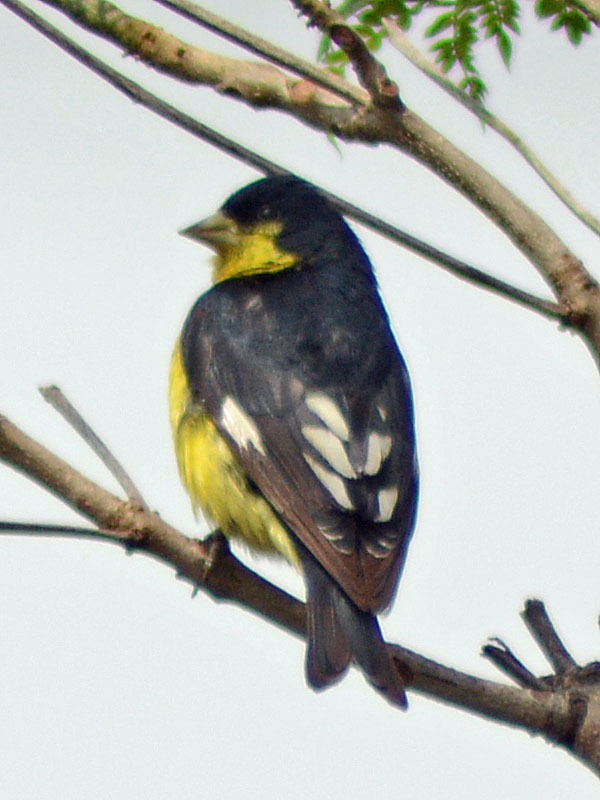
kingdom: Animalia
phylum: Chordata
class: Aves
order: Passeriformes
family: Fringillidae
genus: Spinus
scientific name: Spinus psaltria
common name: Lesser goldfinch
